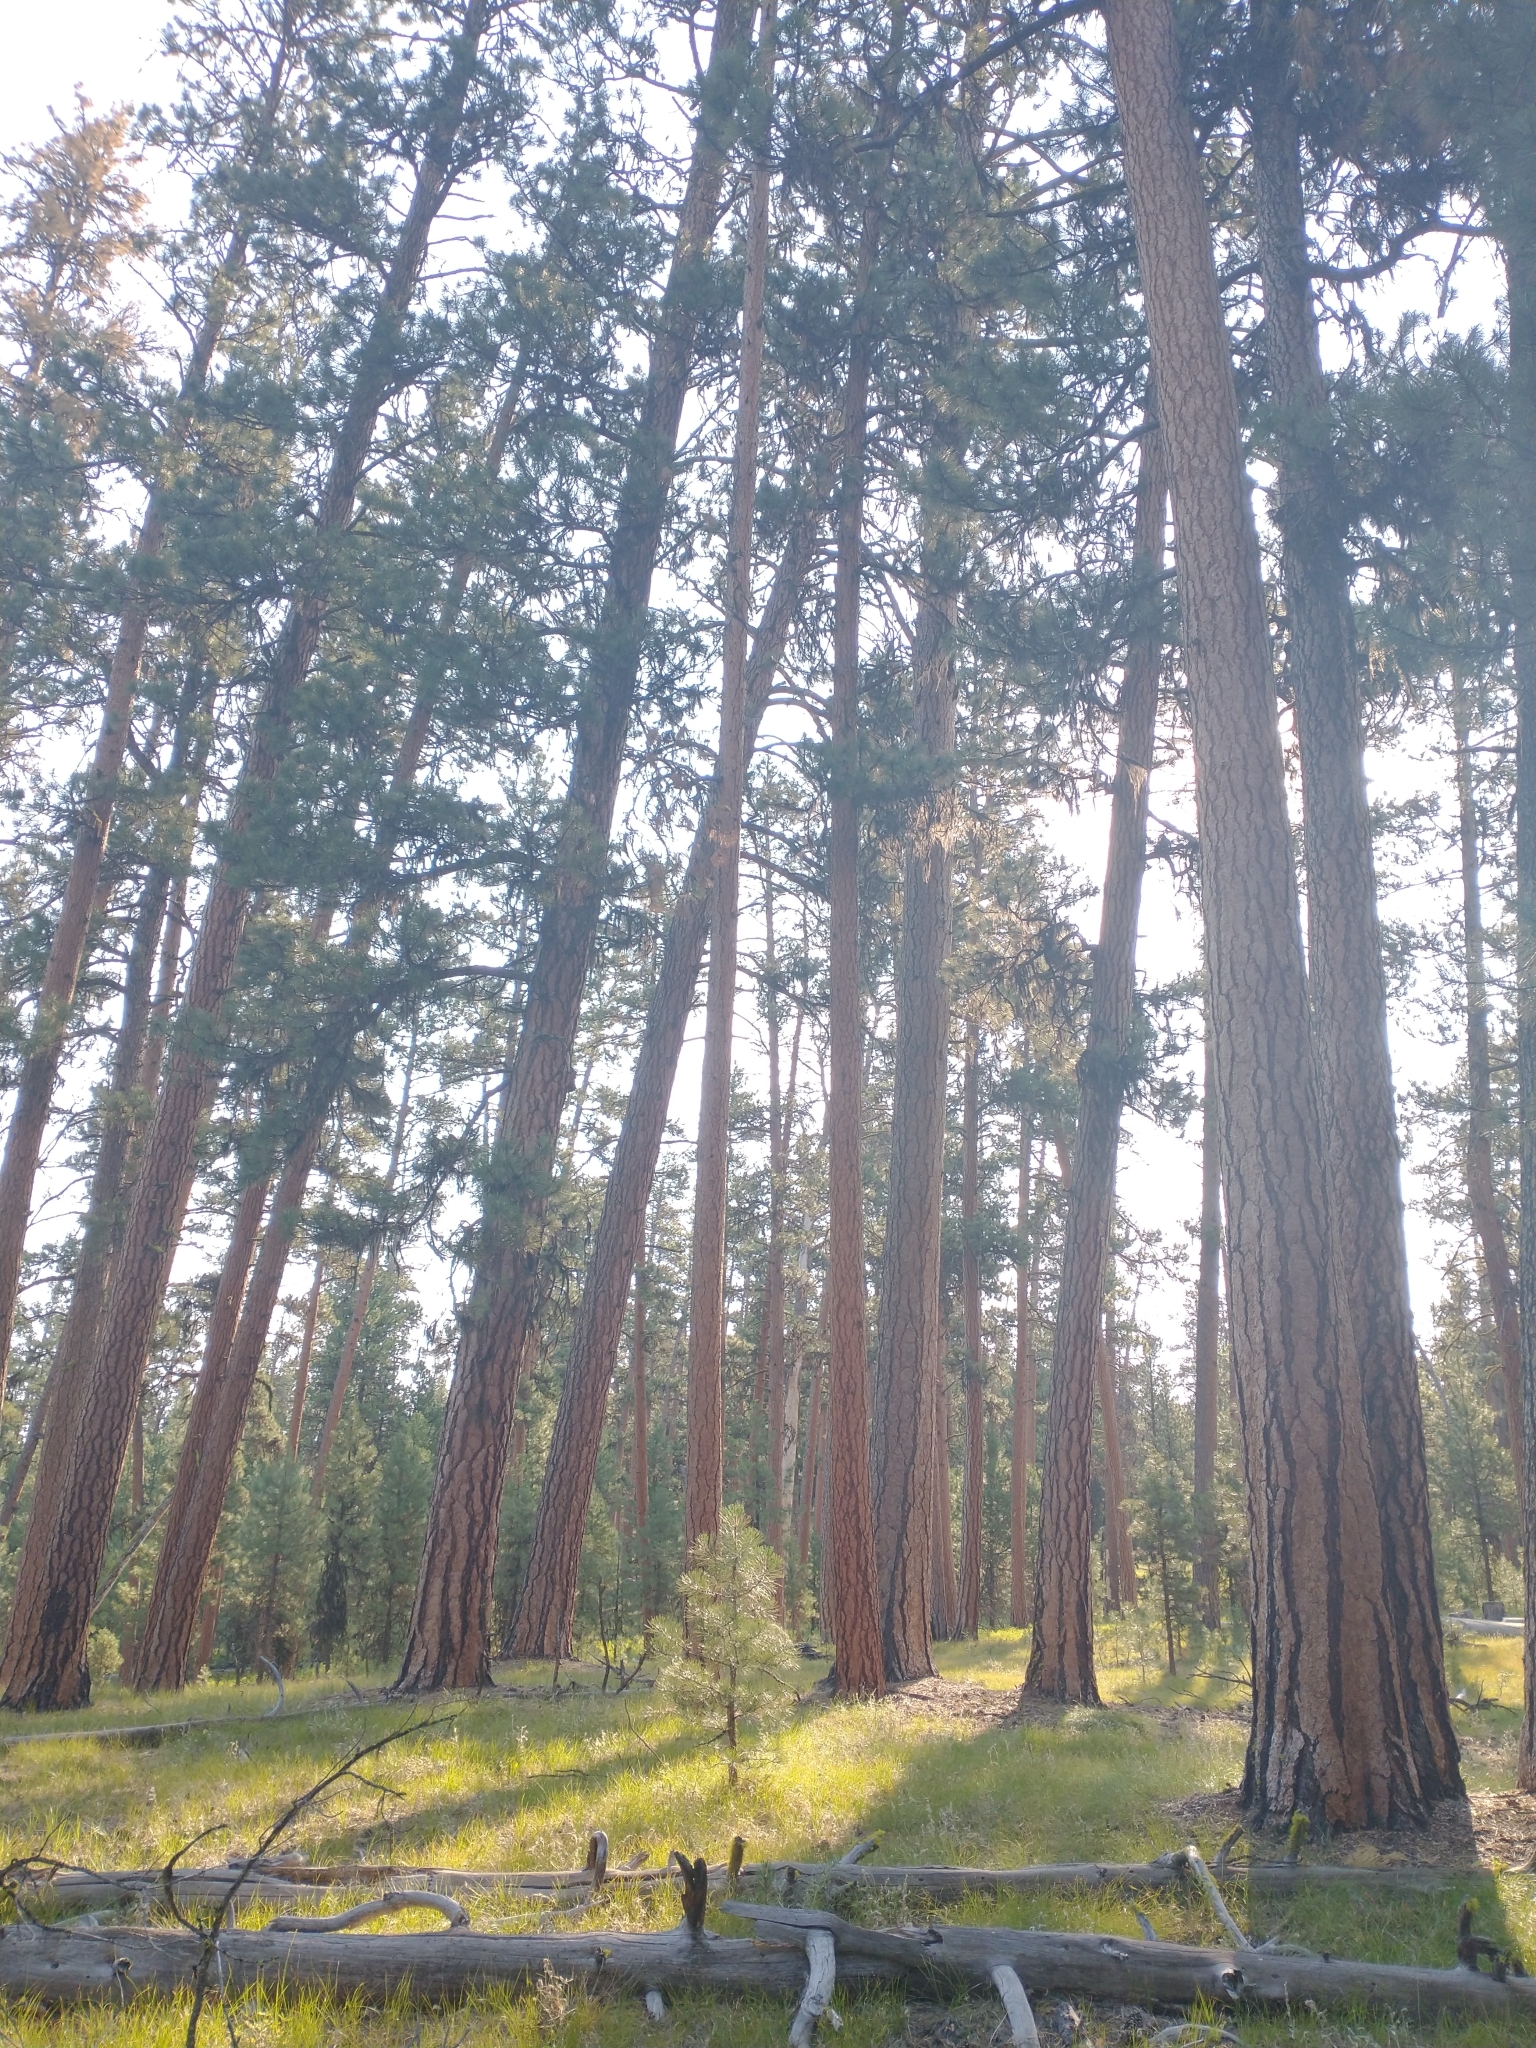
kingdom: Plantae
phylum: Tracheophyta
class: Pinopsida
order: Pinales
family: Pinaceae
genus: Pinus
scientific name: Pinus ponderosa
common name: Western yellow-pine
